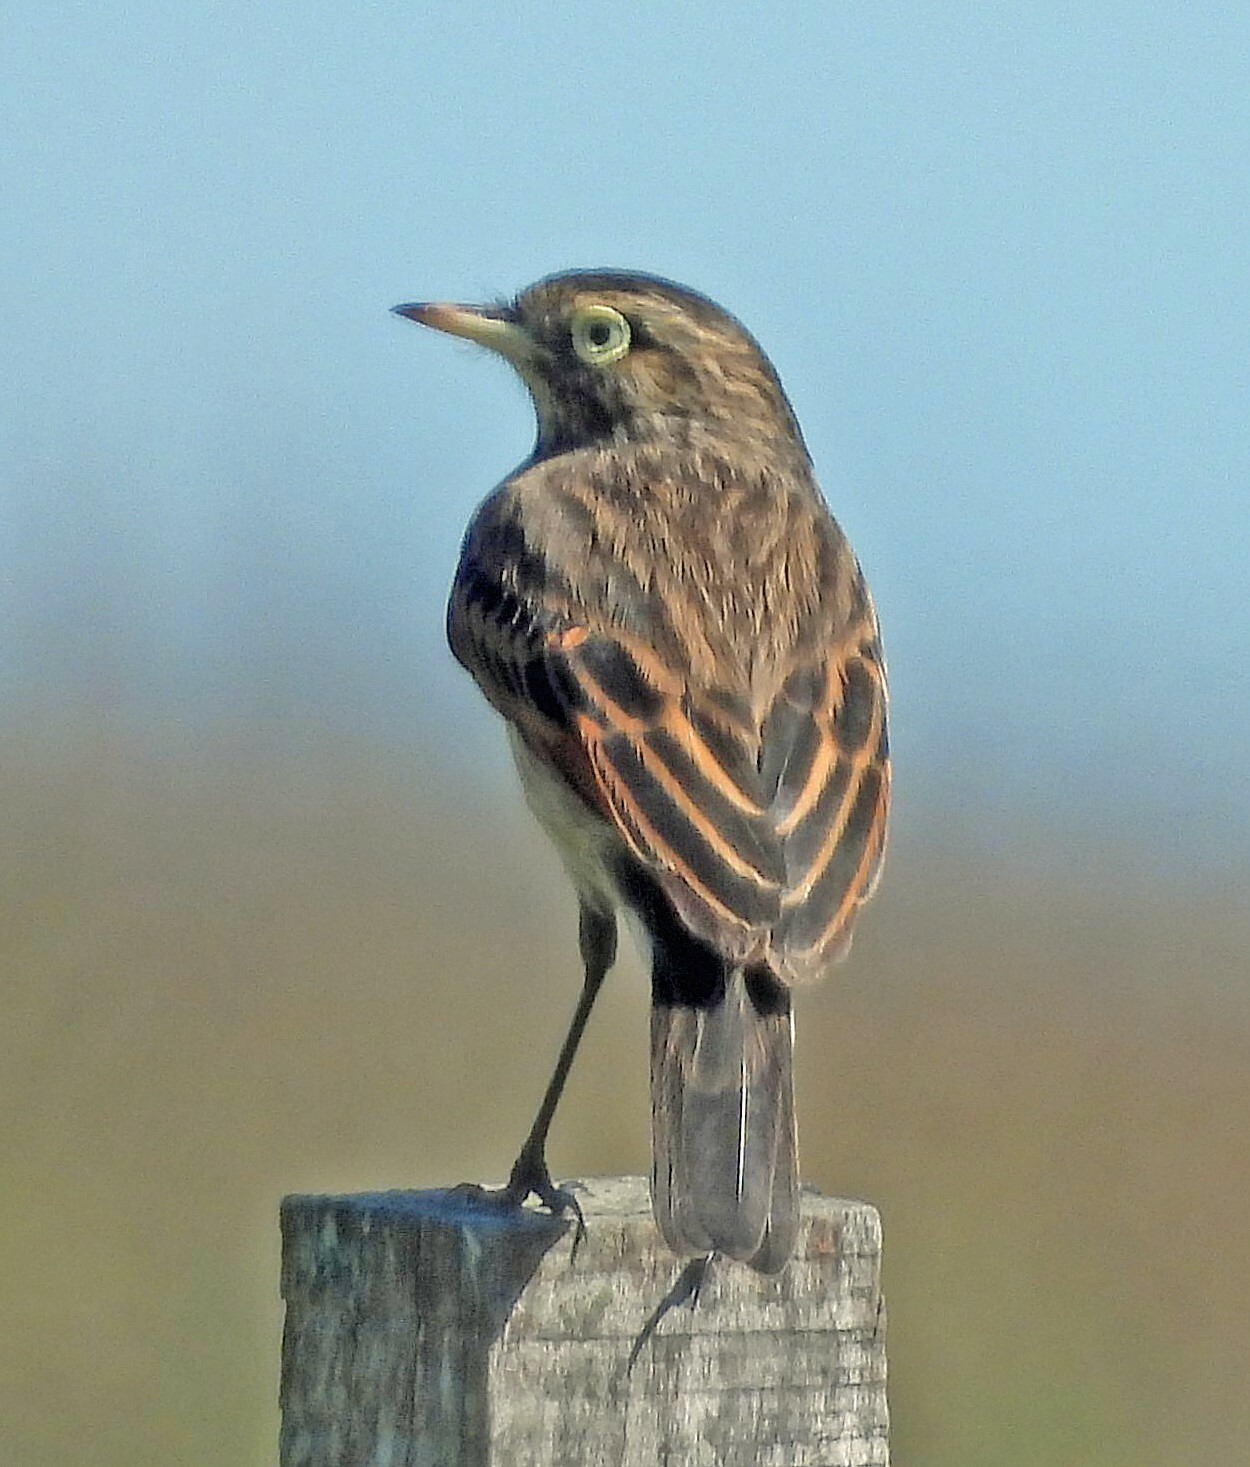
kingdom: Animalia
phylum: Chordata
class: Aves
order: Passeriformes
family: Tyrannidae
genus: Hymenops
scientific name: Hymenops perspicillatus
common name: Spectacled tyrant
